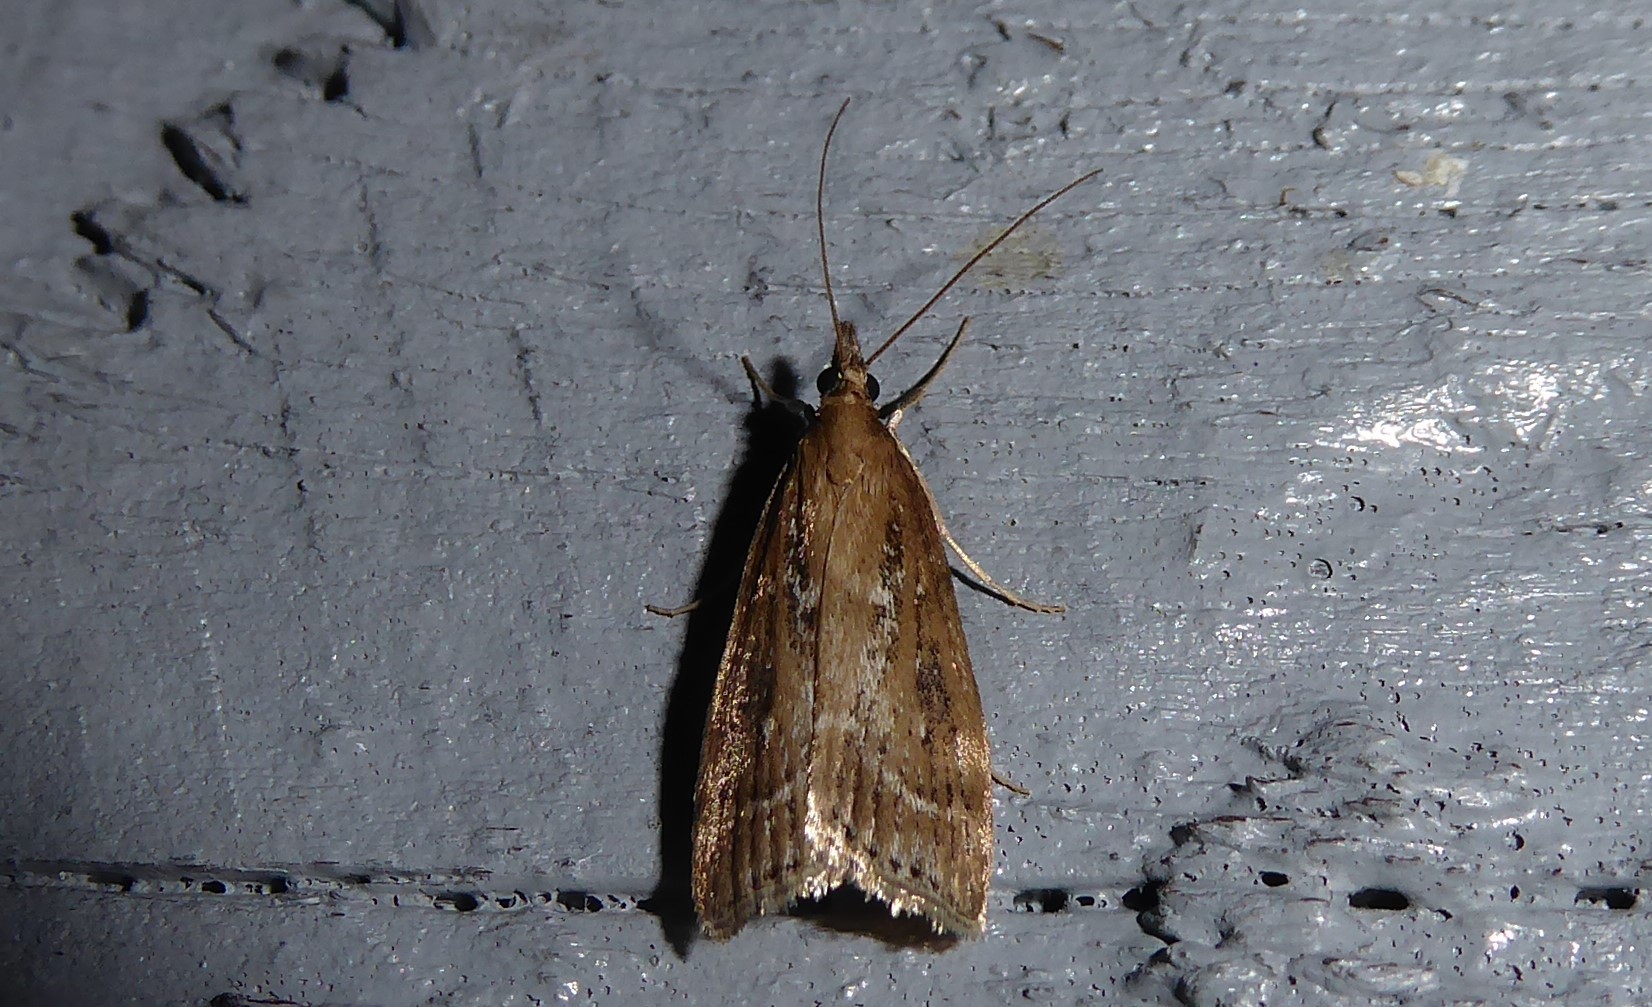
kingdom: Animalia
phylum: Arthropoda
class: Insecta
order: Lepidoptera
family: Crambidae
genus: Eudonia
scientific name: Eudonia octophora
